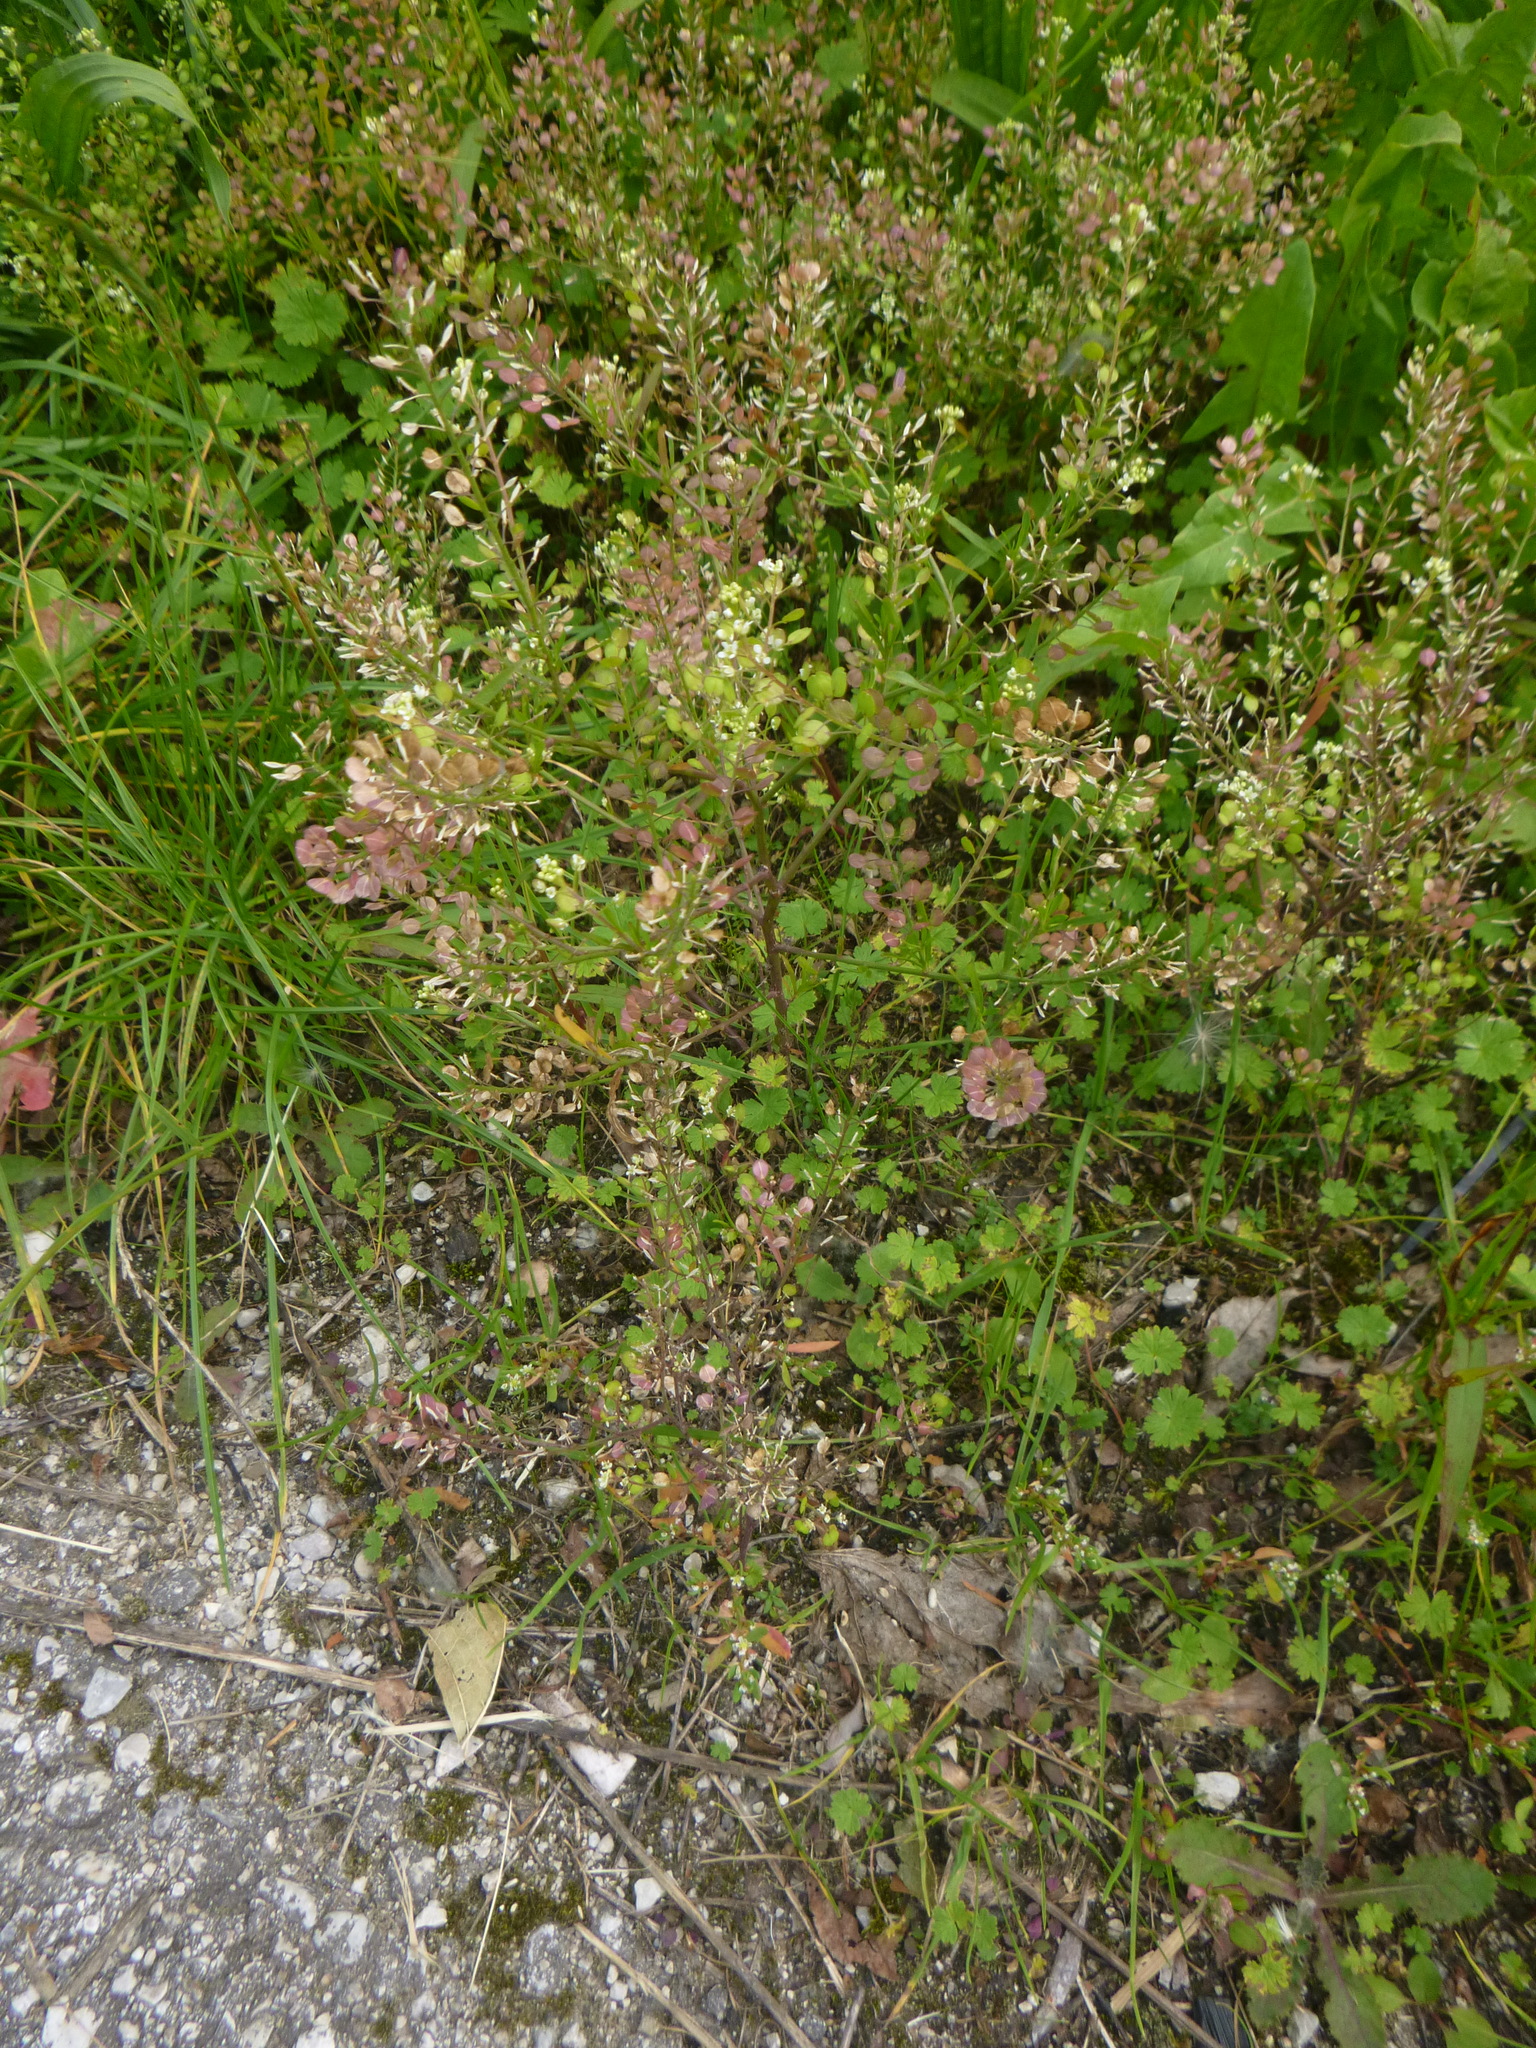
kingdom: Plantae
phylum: Tracheophyta
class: Magnoliopsida
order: Brassicales
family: Brassicaceae
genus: Lepidium
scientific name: Lepidium virginicum
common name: Least pepperwort
